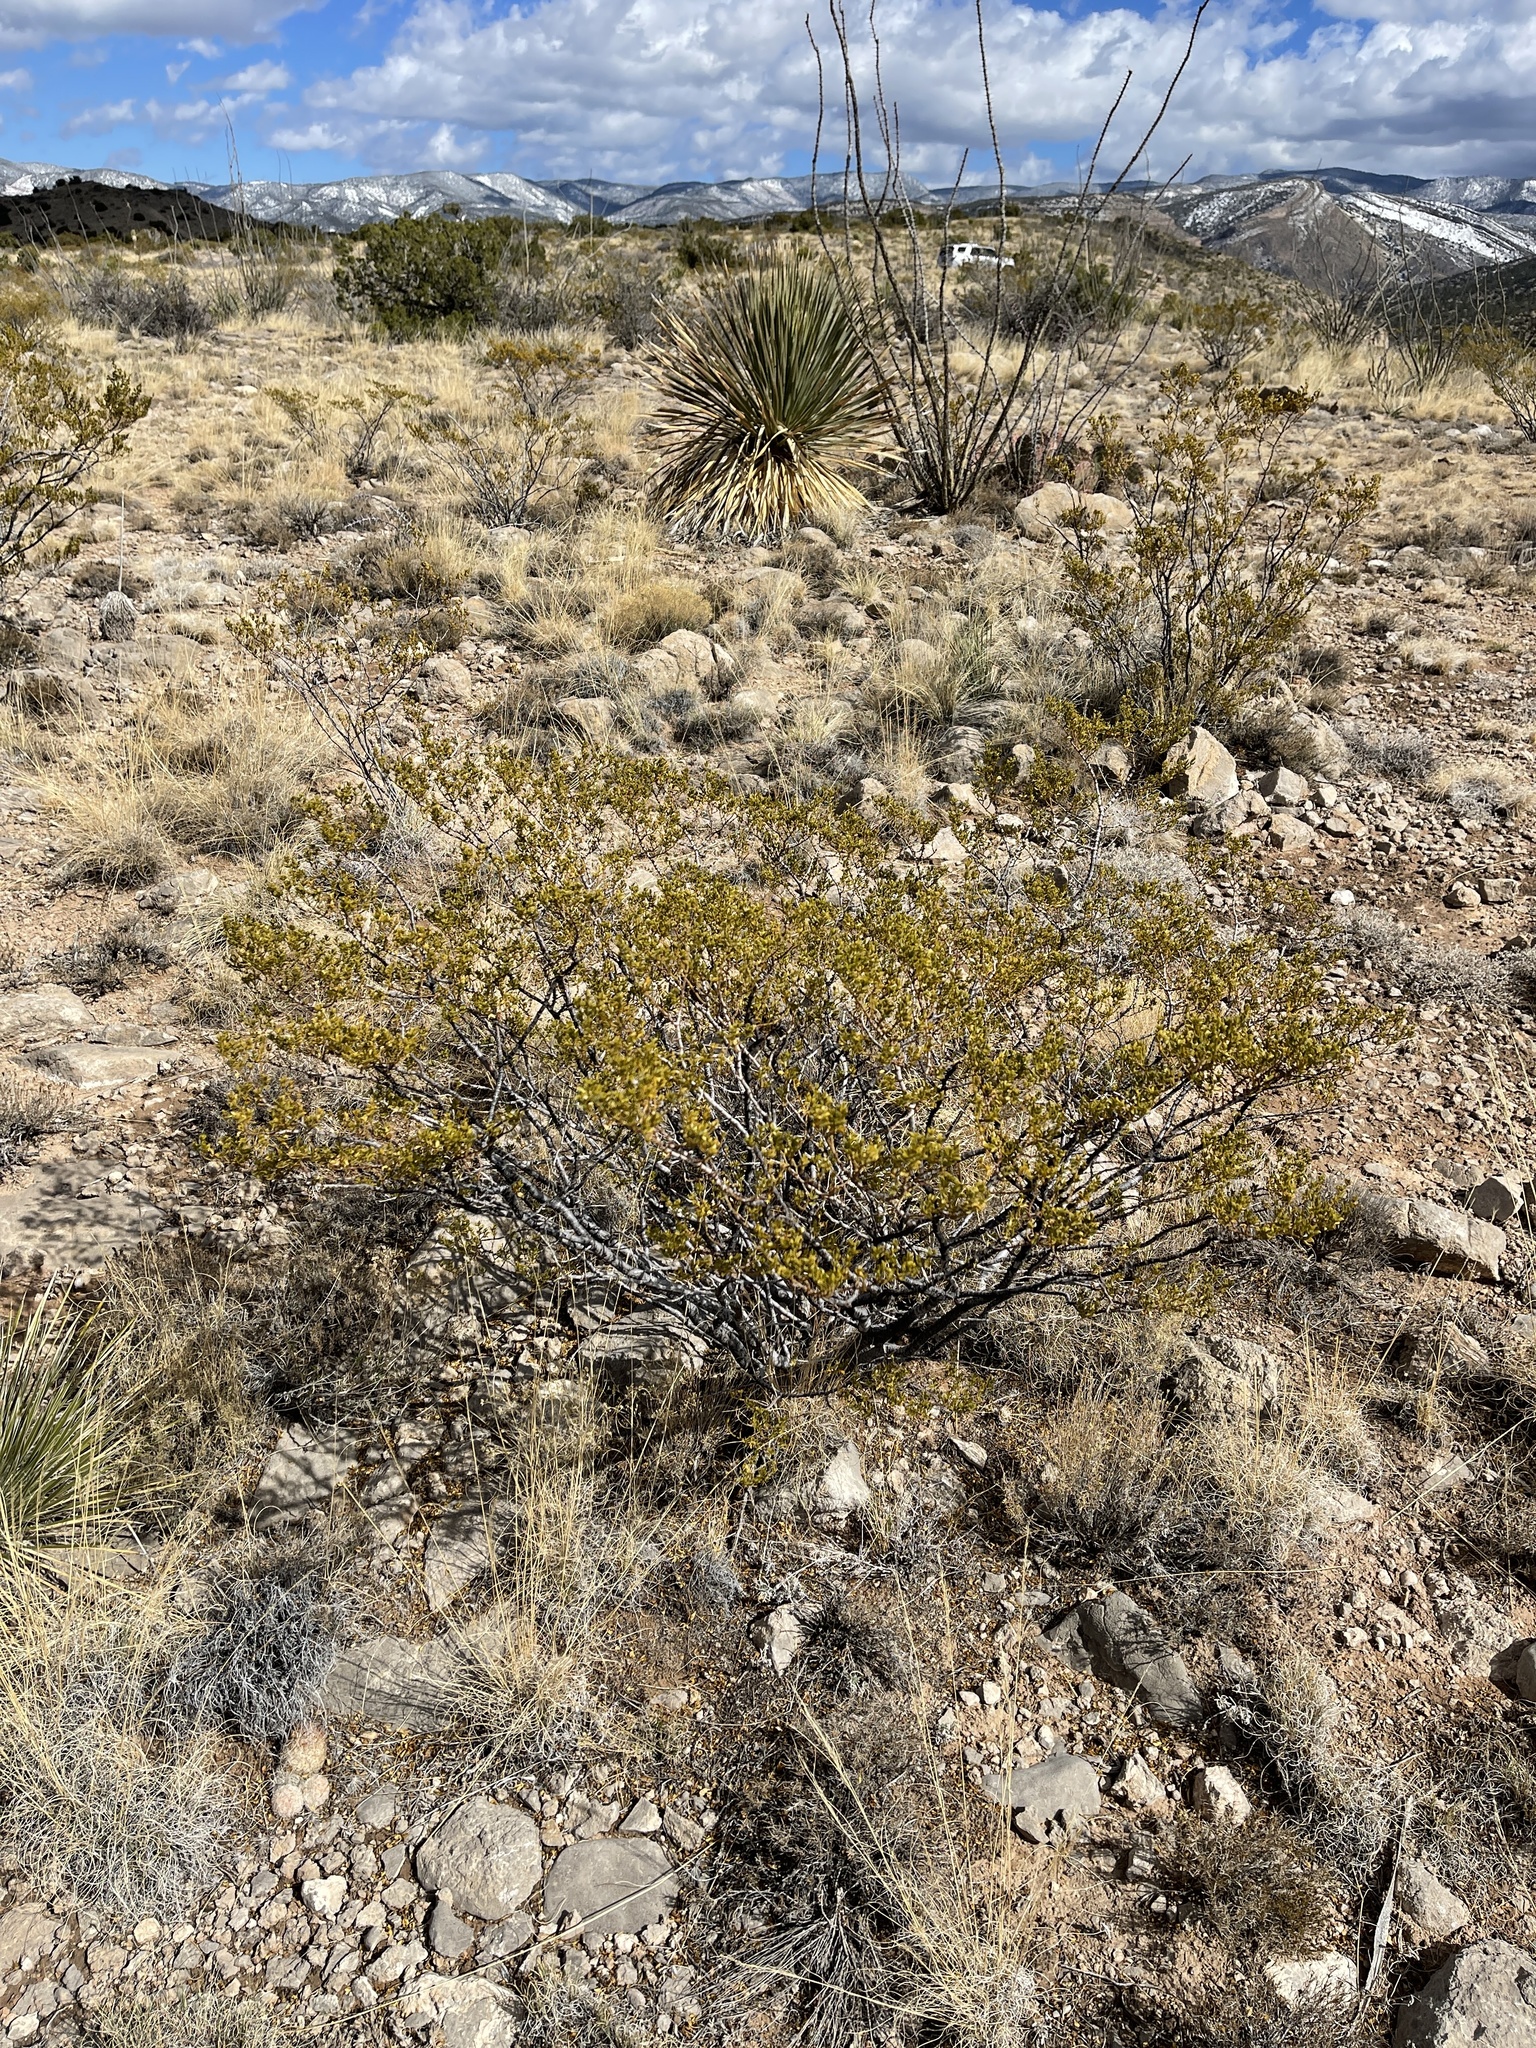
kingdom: Plantae
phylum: Tracheophyta
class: Magnoliopsida
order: Zygophyllales
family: Zygophyllaceae
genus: Larrea
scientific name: Larrea tridentata
